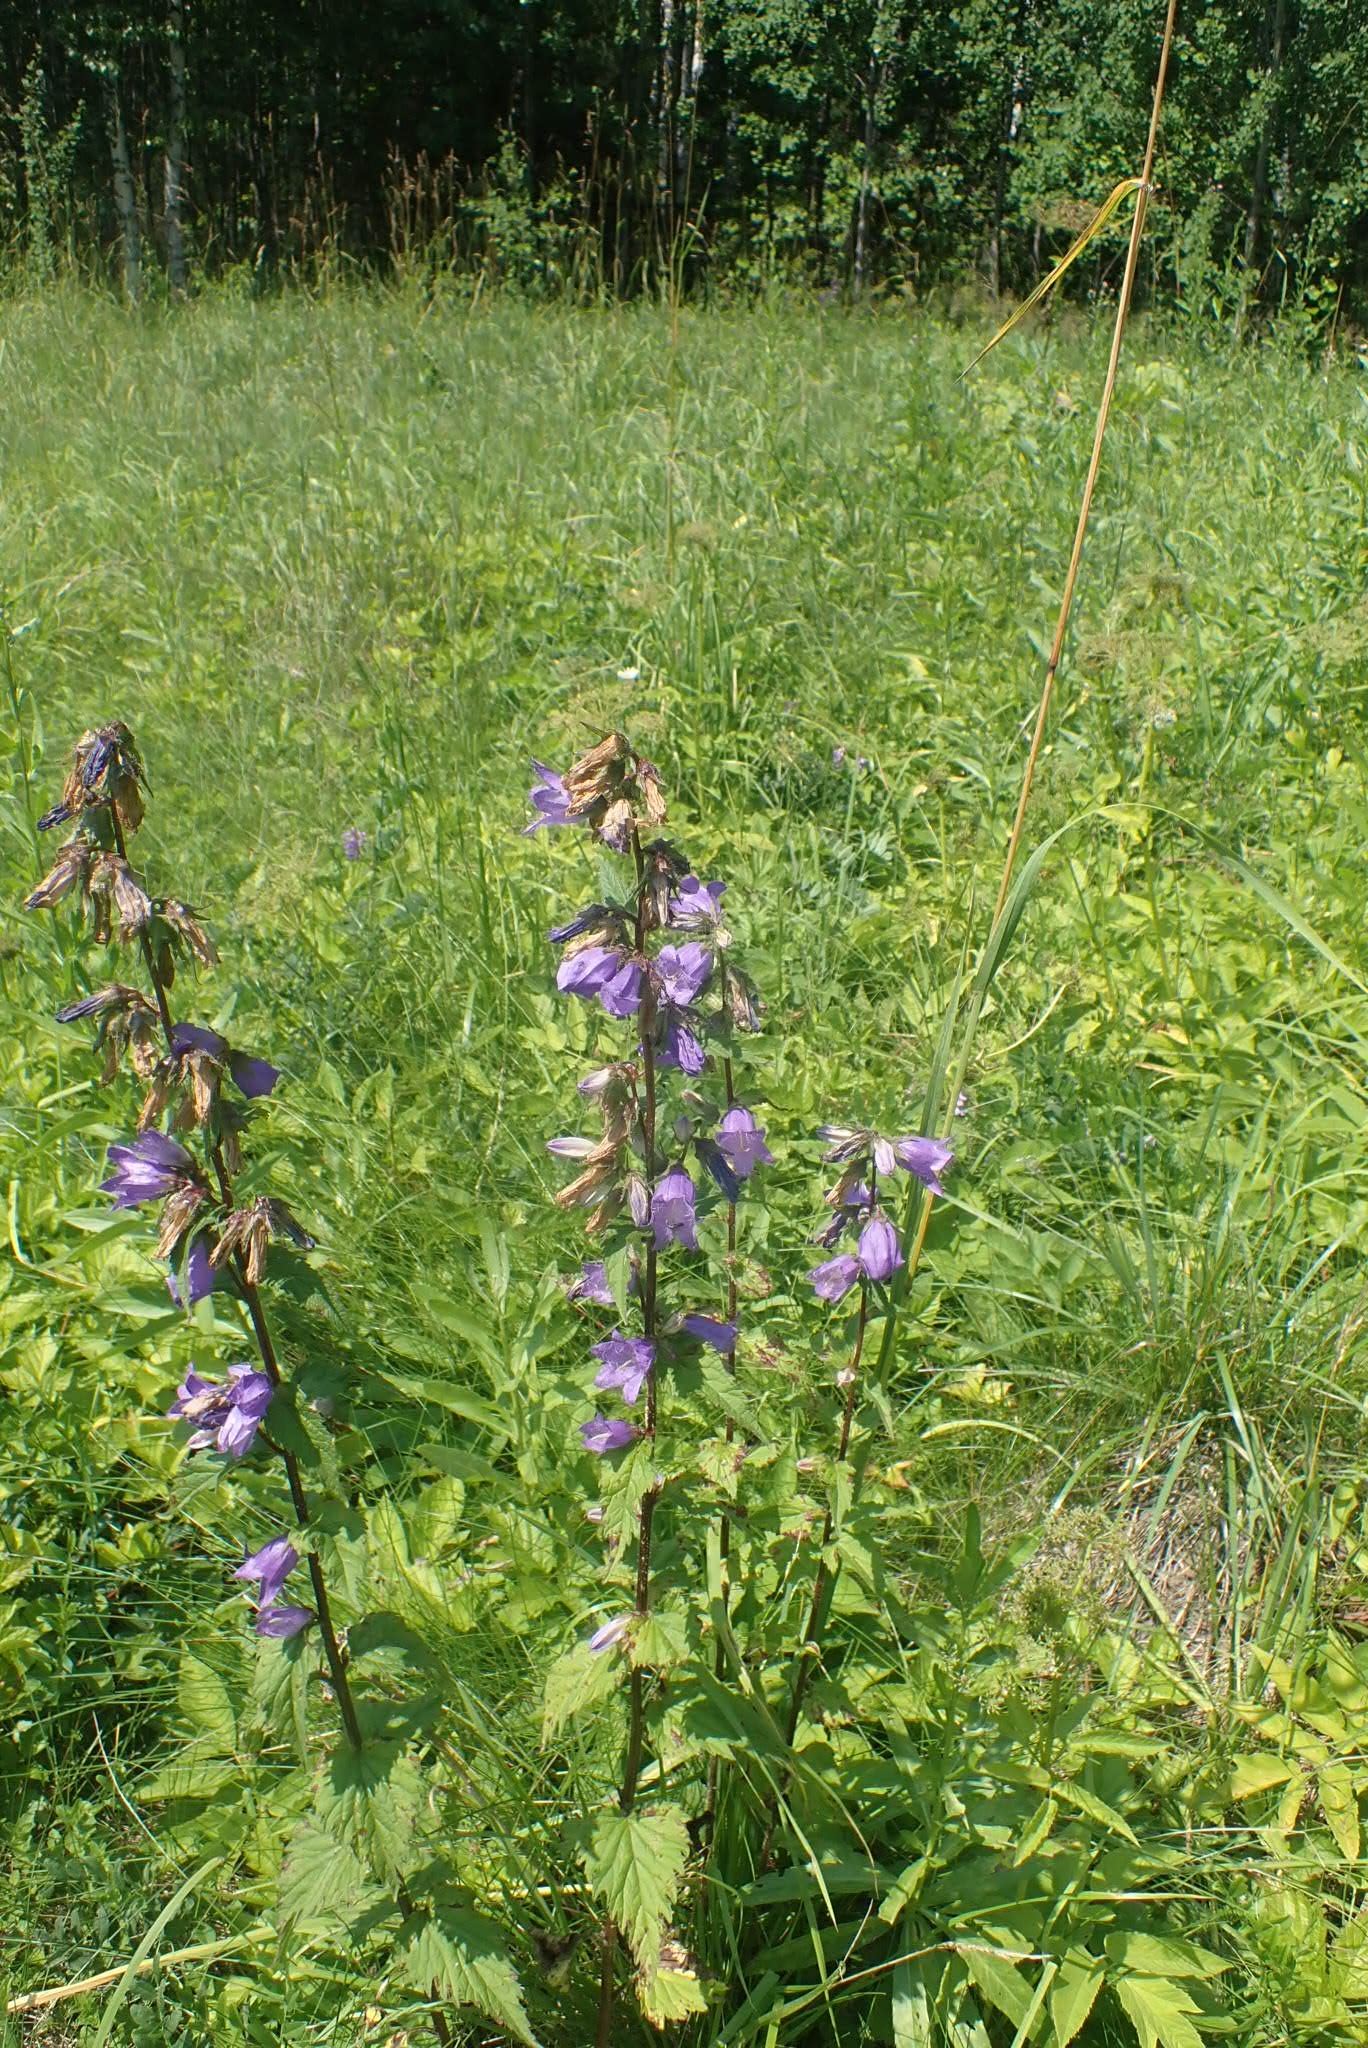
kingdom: Plantae
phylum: Tracheophyta
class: Magnoliopsida
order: Asterales
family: Campanulaceae
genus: Campanula
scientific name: Campanula trachelium
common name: Nettle-leaved bellflower
